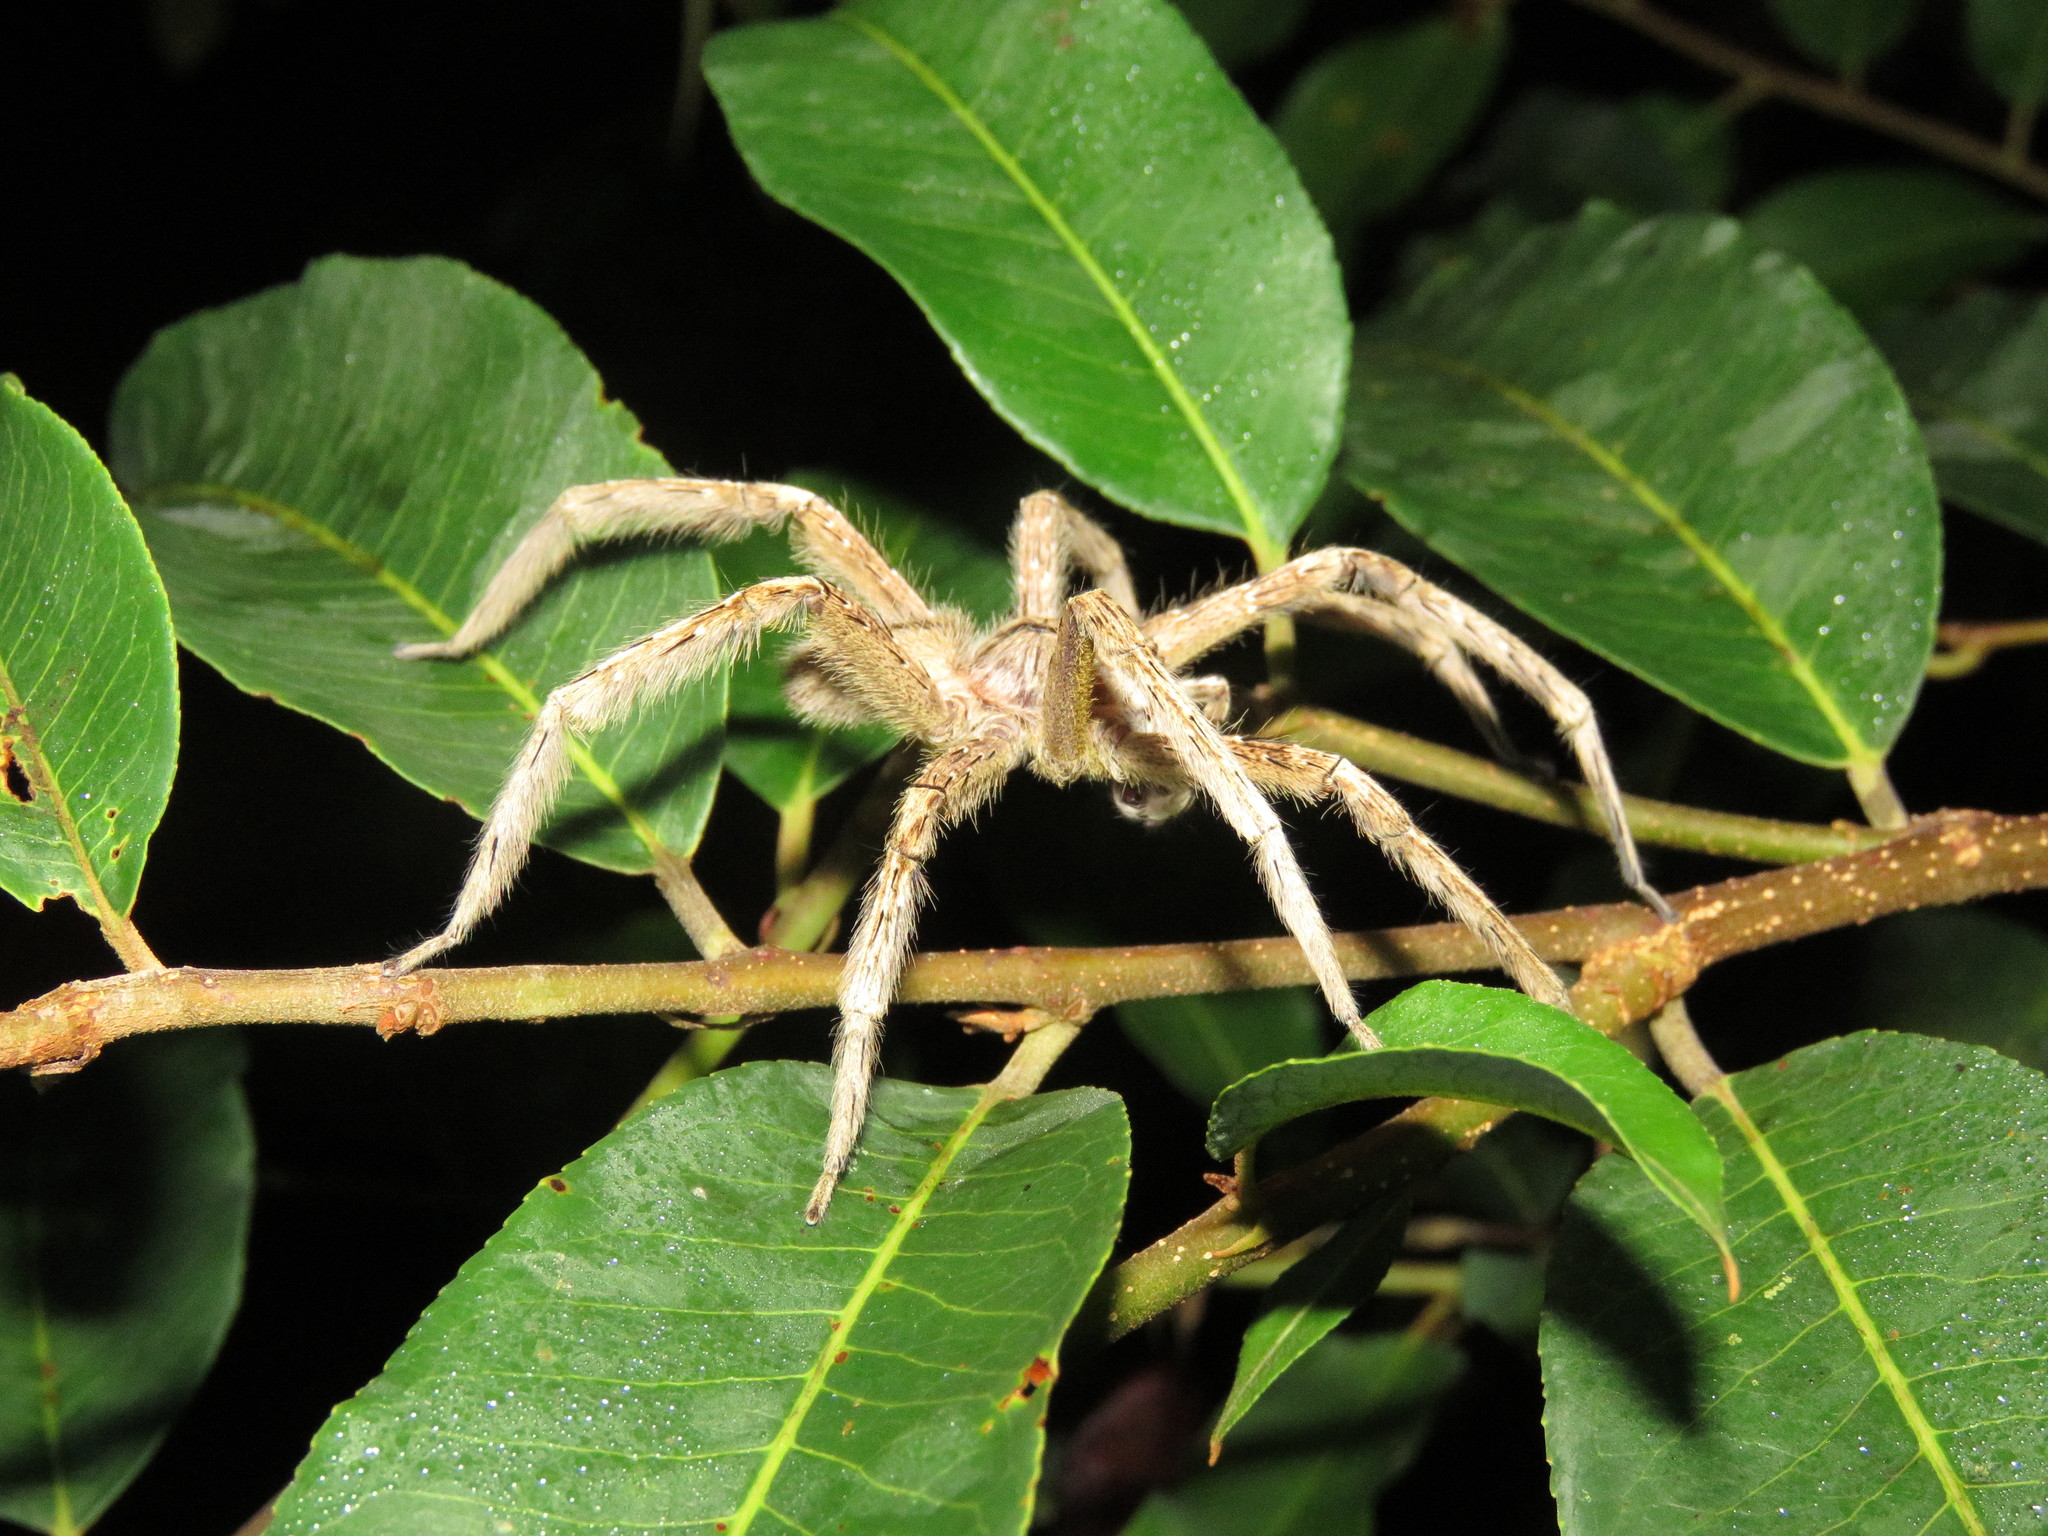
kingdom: Animalia
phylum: Arthropoda
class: Arachnida
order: Araneae
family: Ctenidae
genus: Phoneutria
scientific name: Phoneutria boliviensis
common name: Wandering spiders
